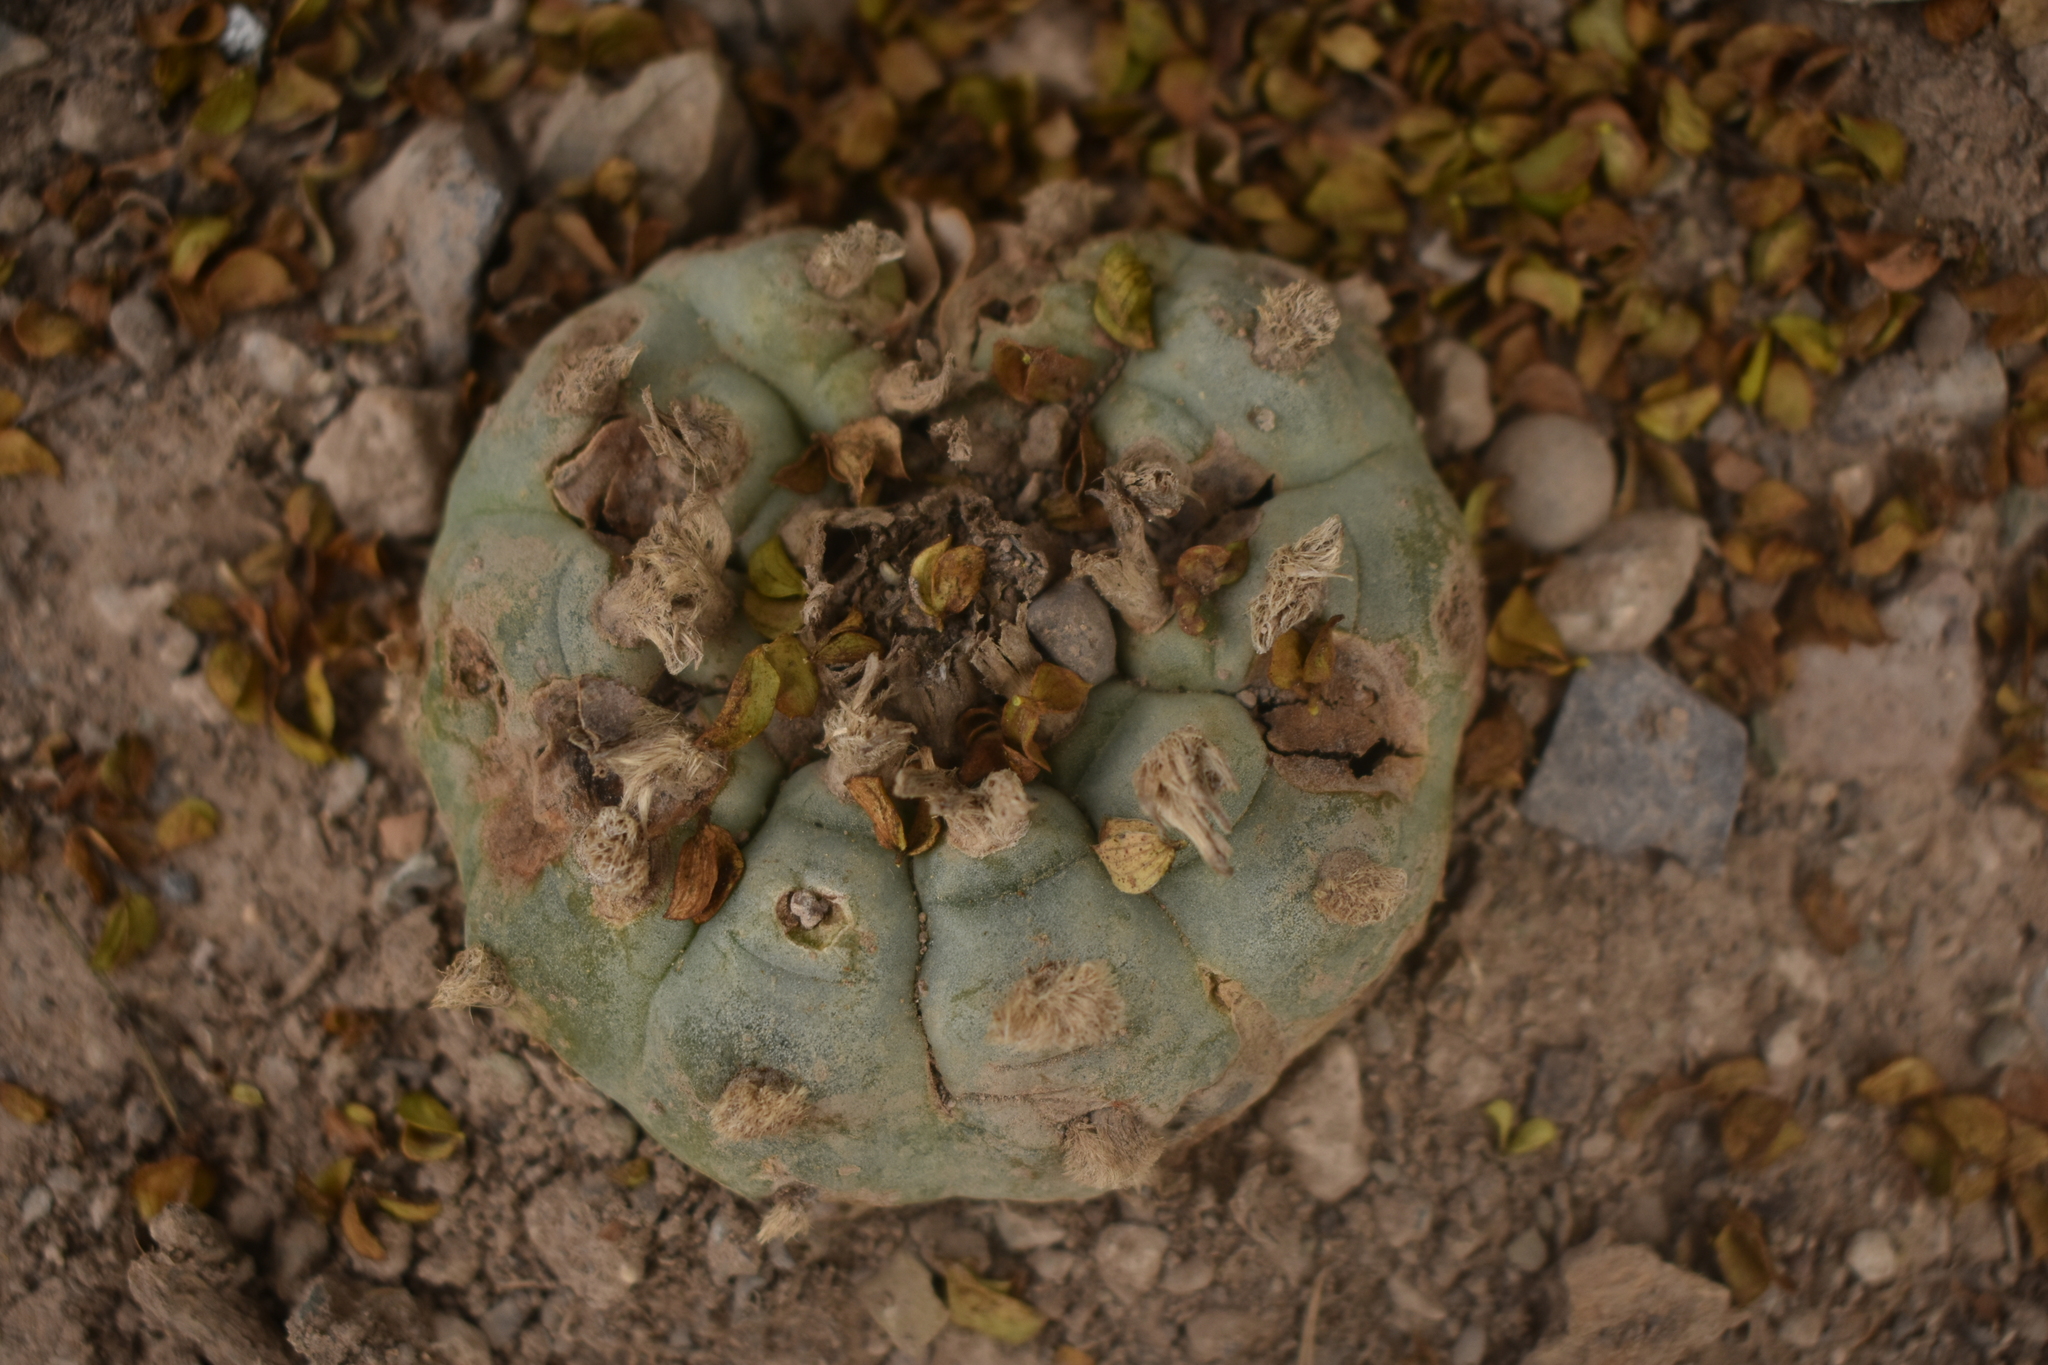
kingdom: Plantae
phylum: Tracheophyta
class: Magnoliopsida
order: Caryophyllales
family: Cactaceae
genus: Lophophora
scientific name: Lophophora williamsii
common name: Indian-dope
